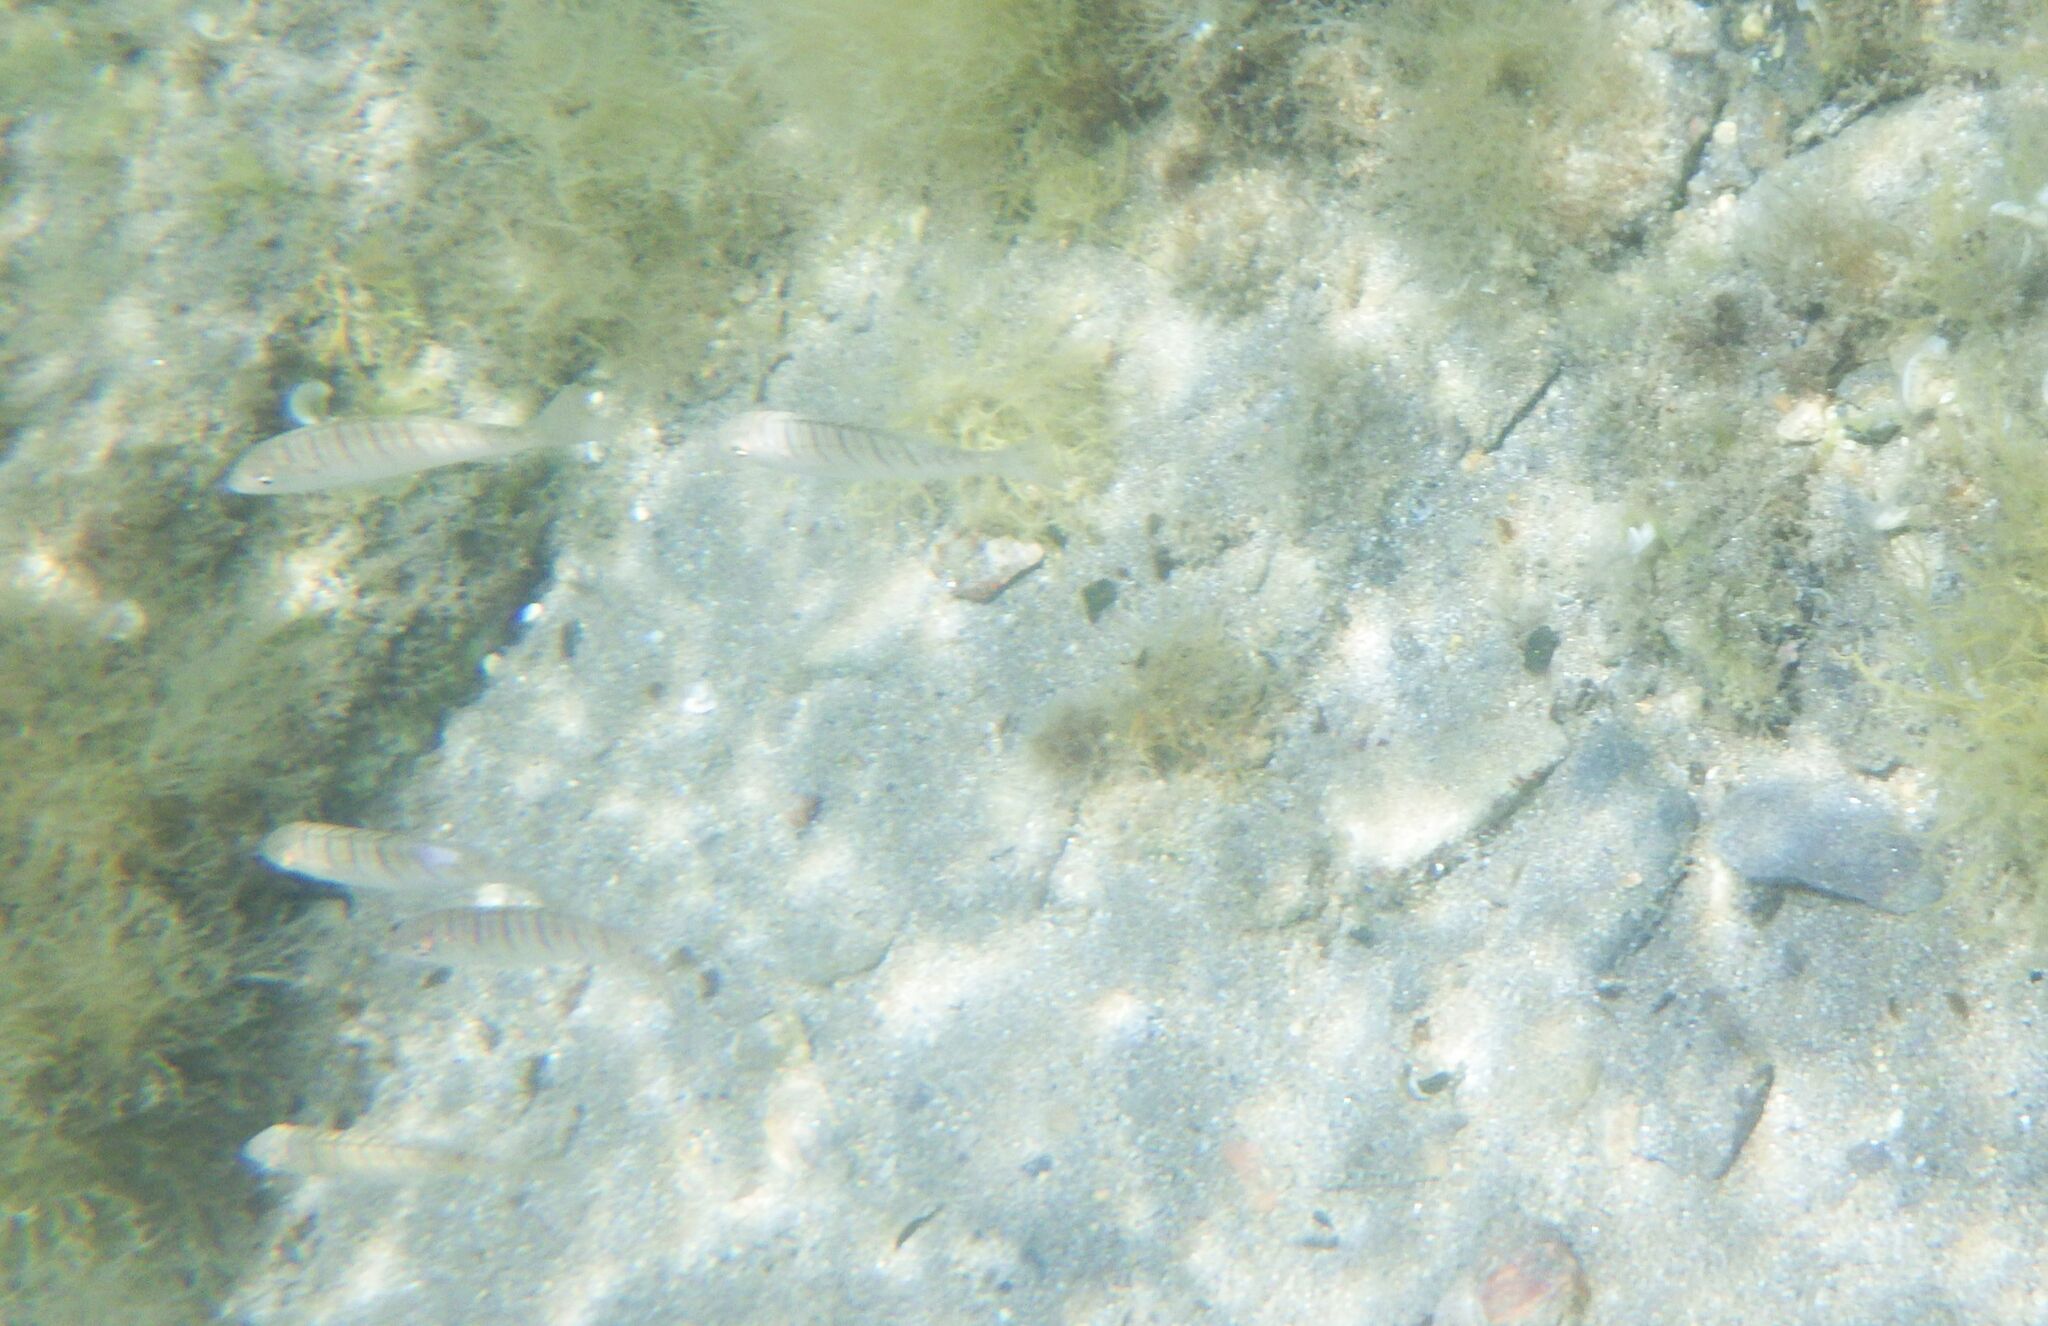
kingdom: Animalia
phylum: Chordata
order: Perciformes
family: Sparidae
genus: Lithognathus
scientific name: Lithognathus mormyrus
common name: Sand steenbras
